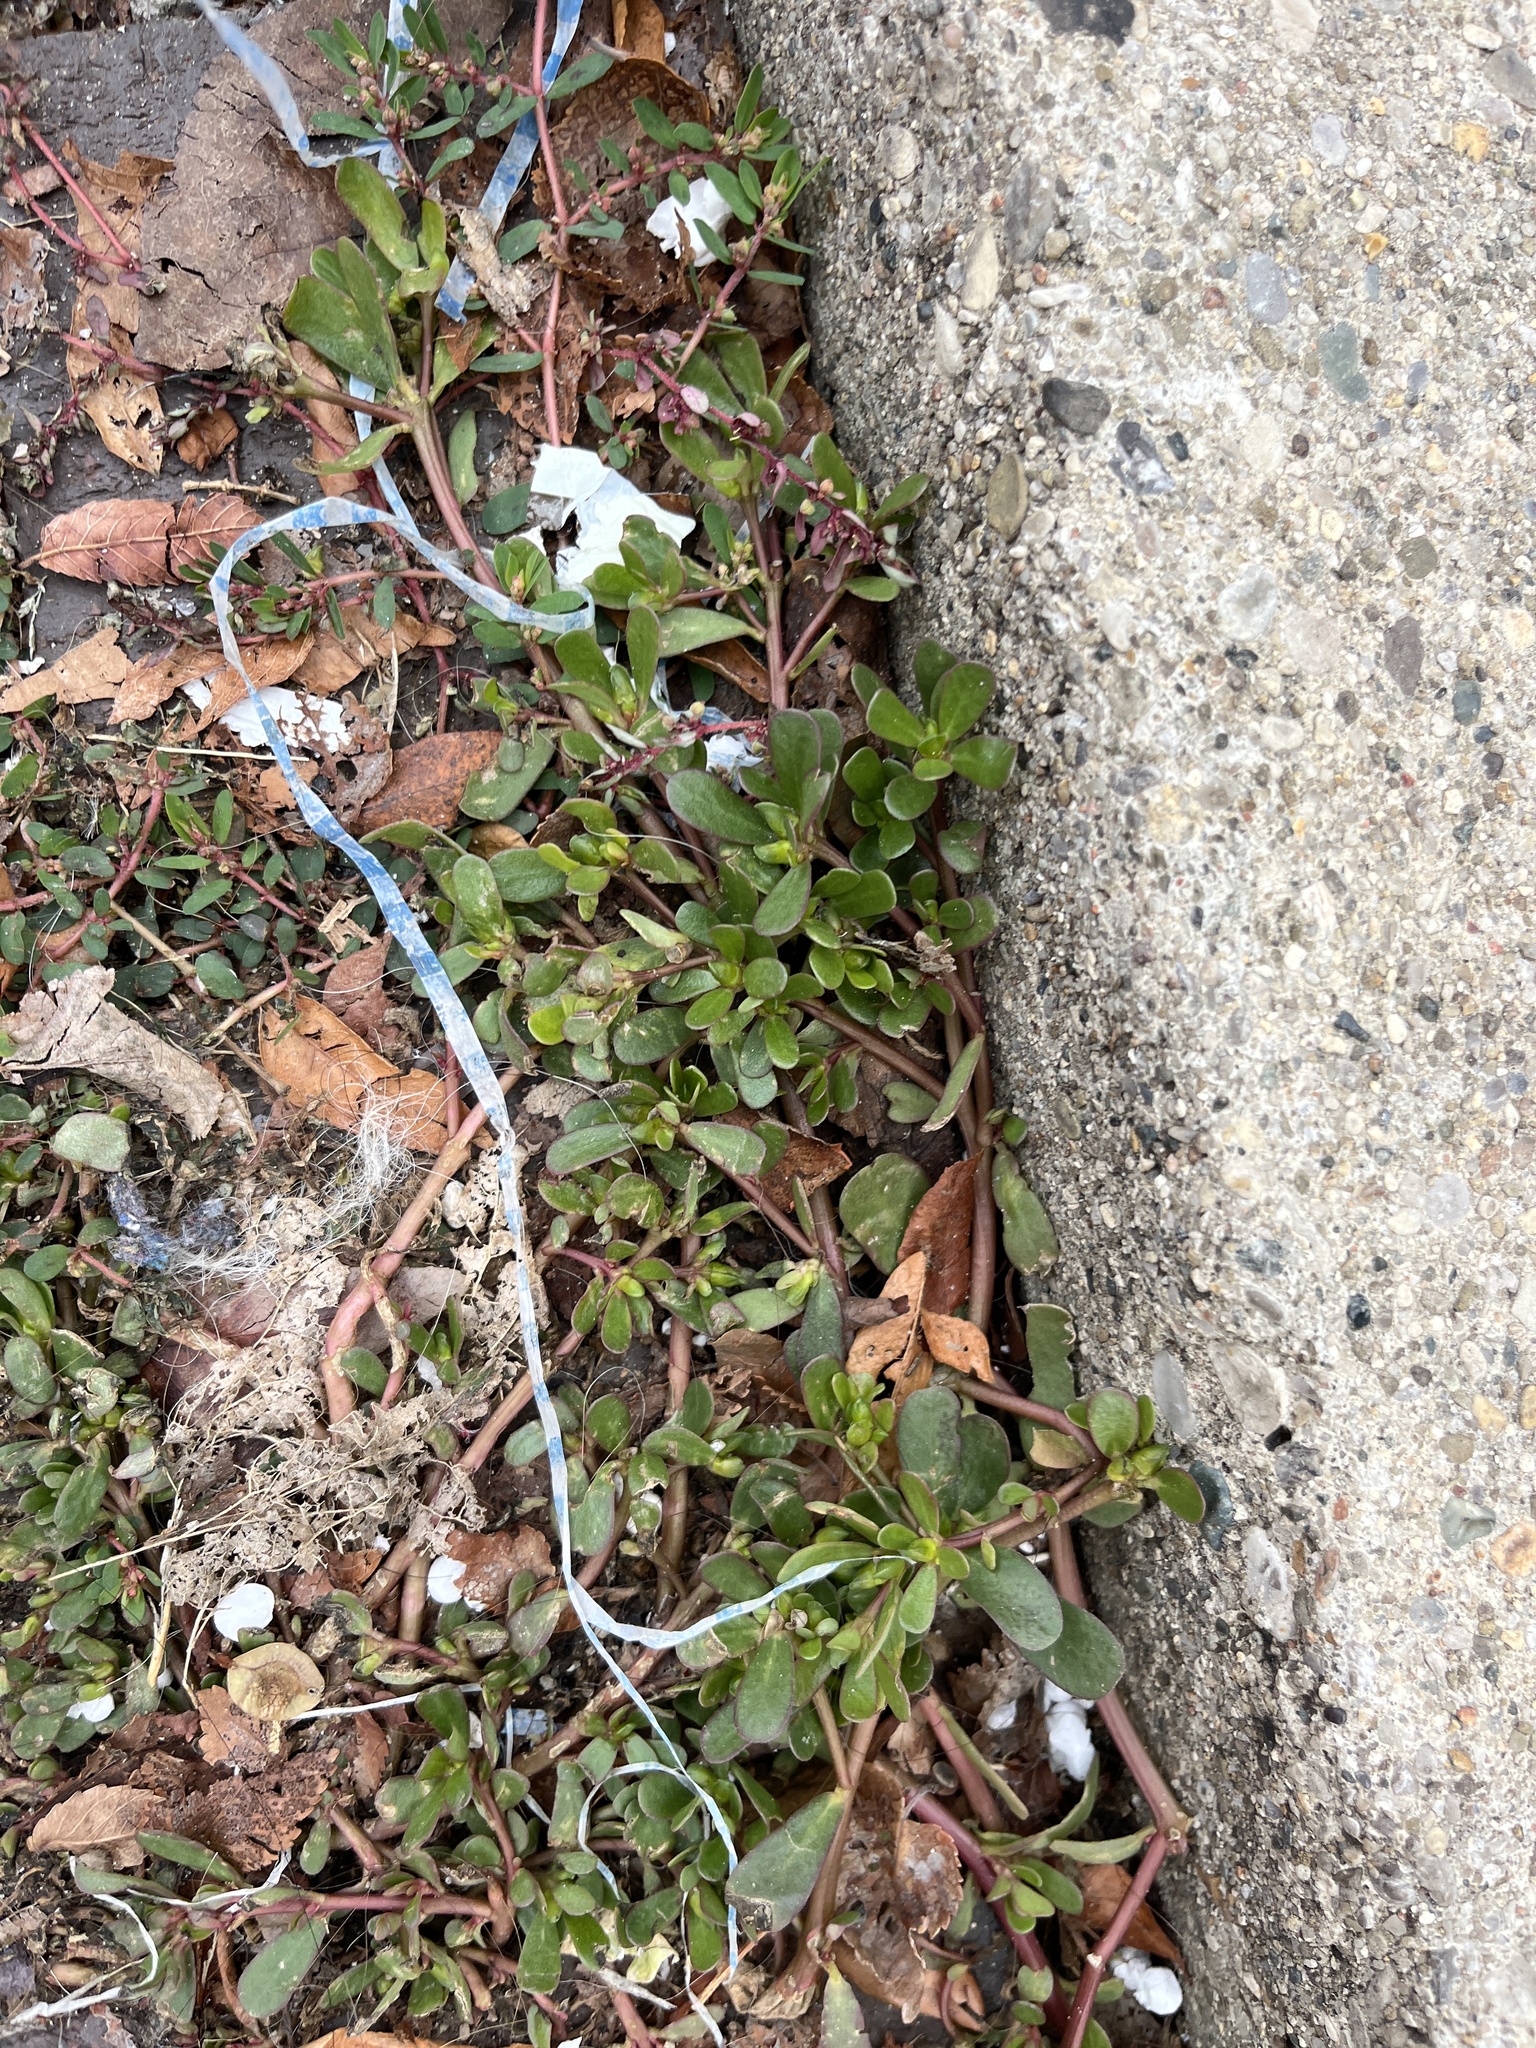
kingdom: Plantae
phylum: Tracheophyta
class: Magnoliopsida
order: Caryophyllales
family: Portulacaceae
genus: Portulaca
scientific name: Portulaca oleracea
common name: Common purslane
